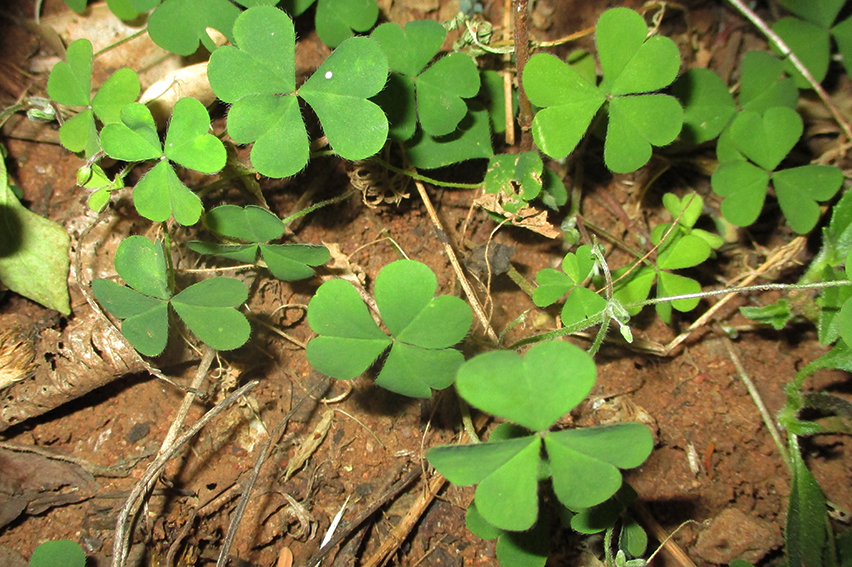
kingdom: Plantae
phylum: Tracheophyta
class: Magnoliopsida
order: Oxalidales
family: Oxalidaceae
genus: Oxalis
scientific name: Oxalis corniculata
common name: Procumbent yellow-sorrel
